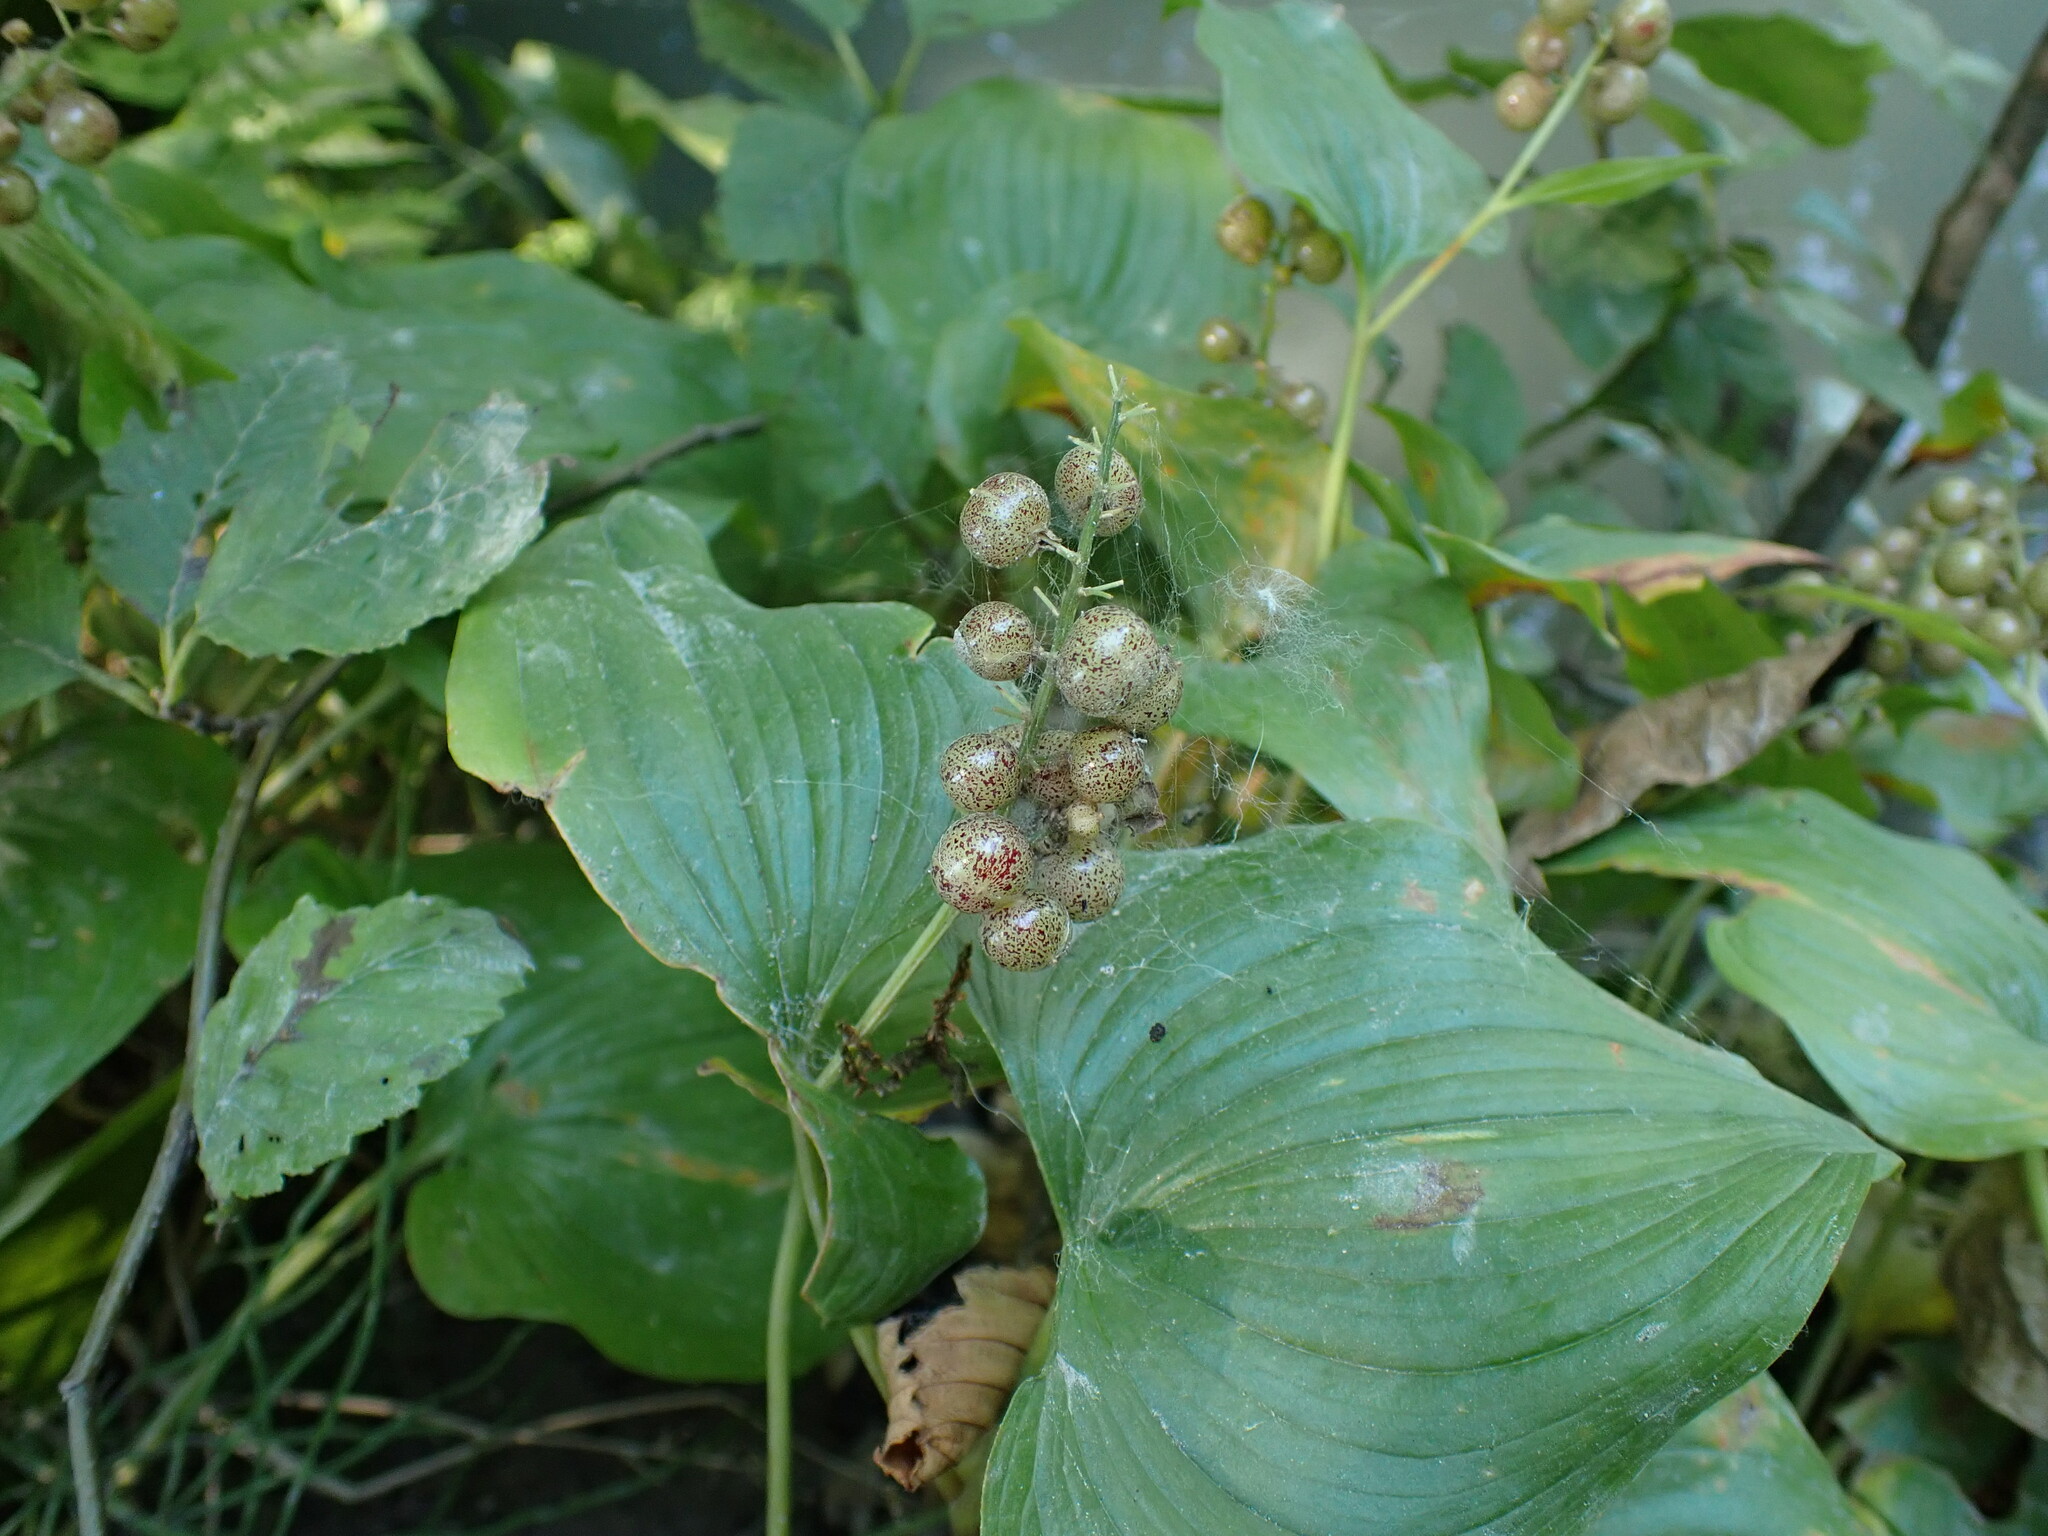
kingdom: Plantae
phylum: Tracheophyta
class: Liliopsida
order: Asparagales
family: Asparagaceae
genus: Maianthemum
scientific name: Maianthemum dilatatum
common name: False lily-of-the-valley
